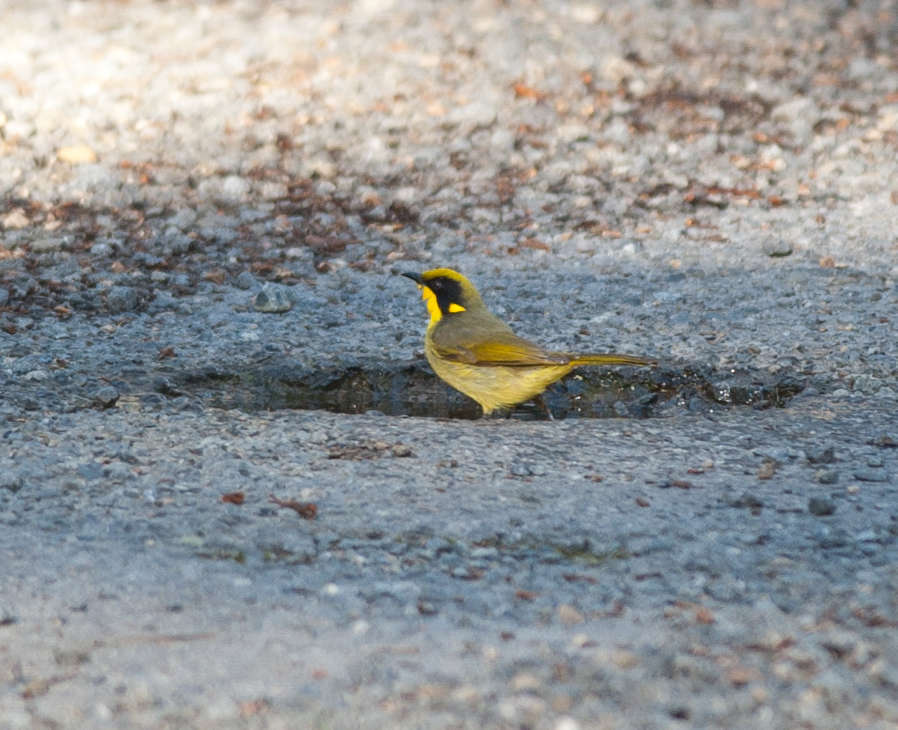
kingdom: Animalia
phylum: Chordata
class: Aves
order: Passeriformes
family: Meliphagidae
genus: Lichenostomus
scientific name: Lichenostomus melanops
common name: Yellow-tufted honeyeater
